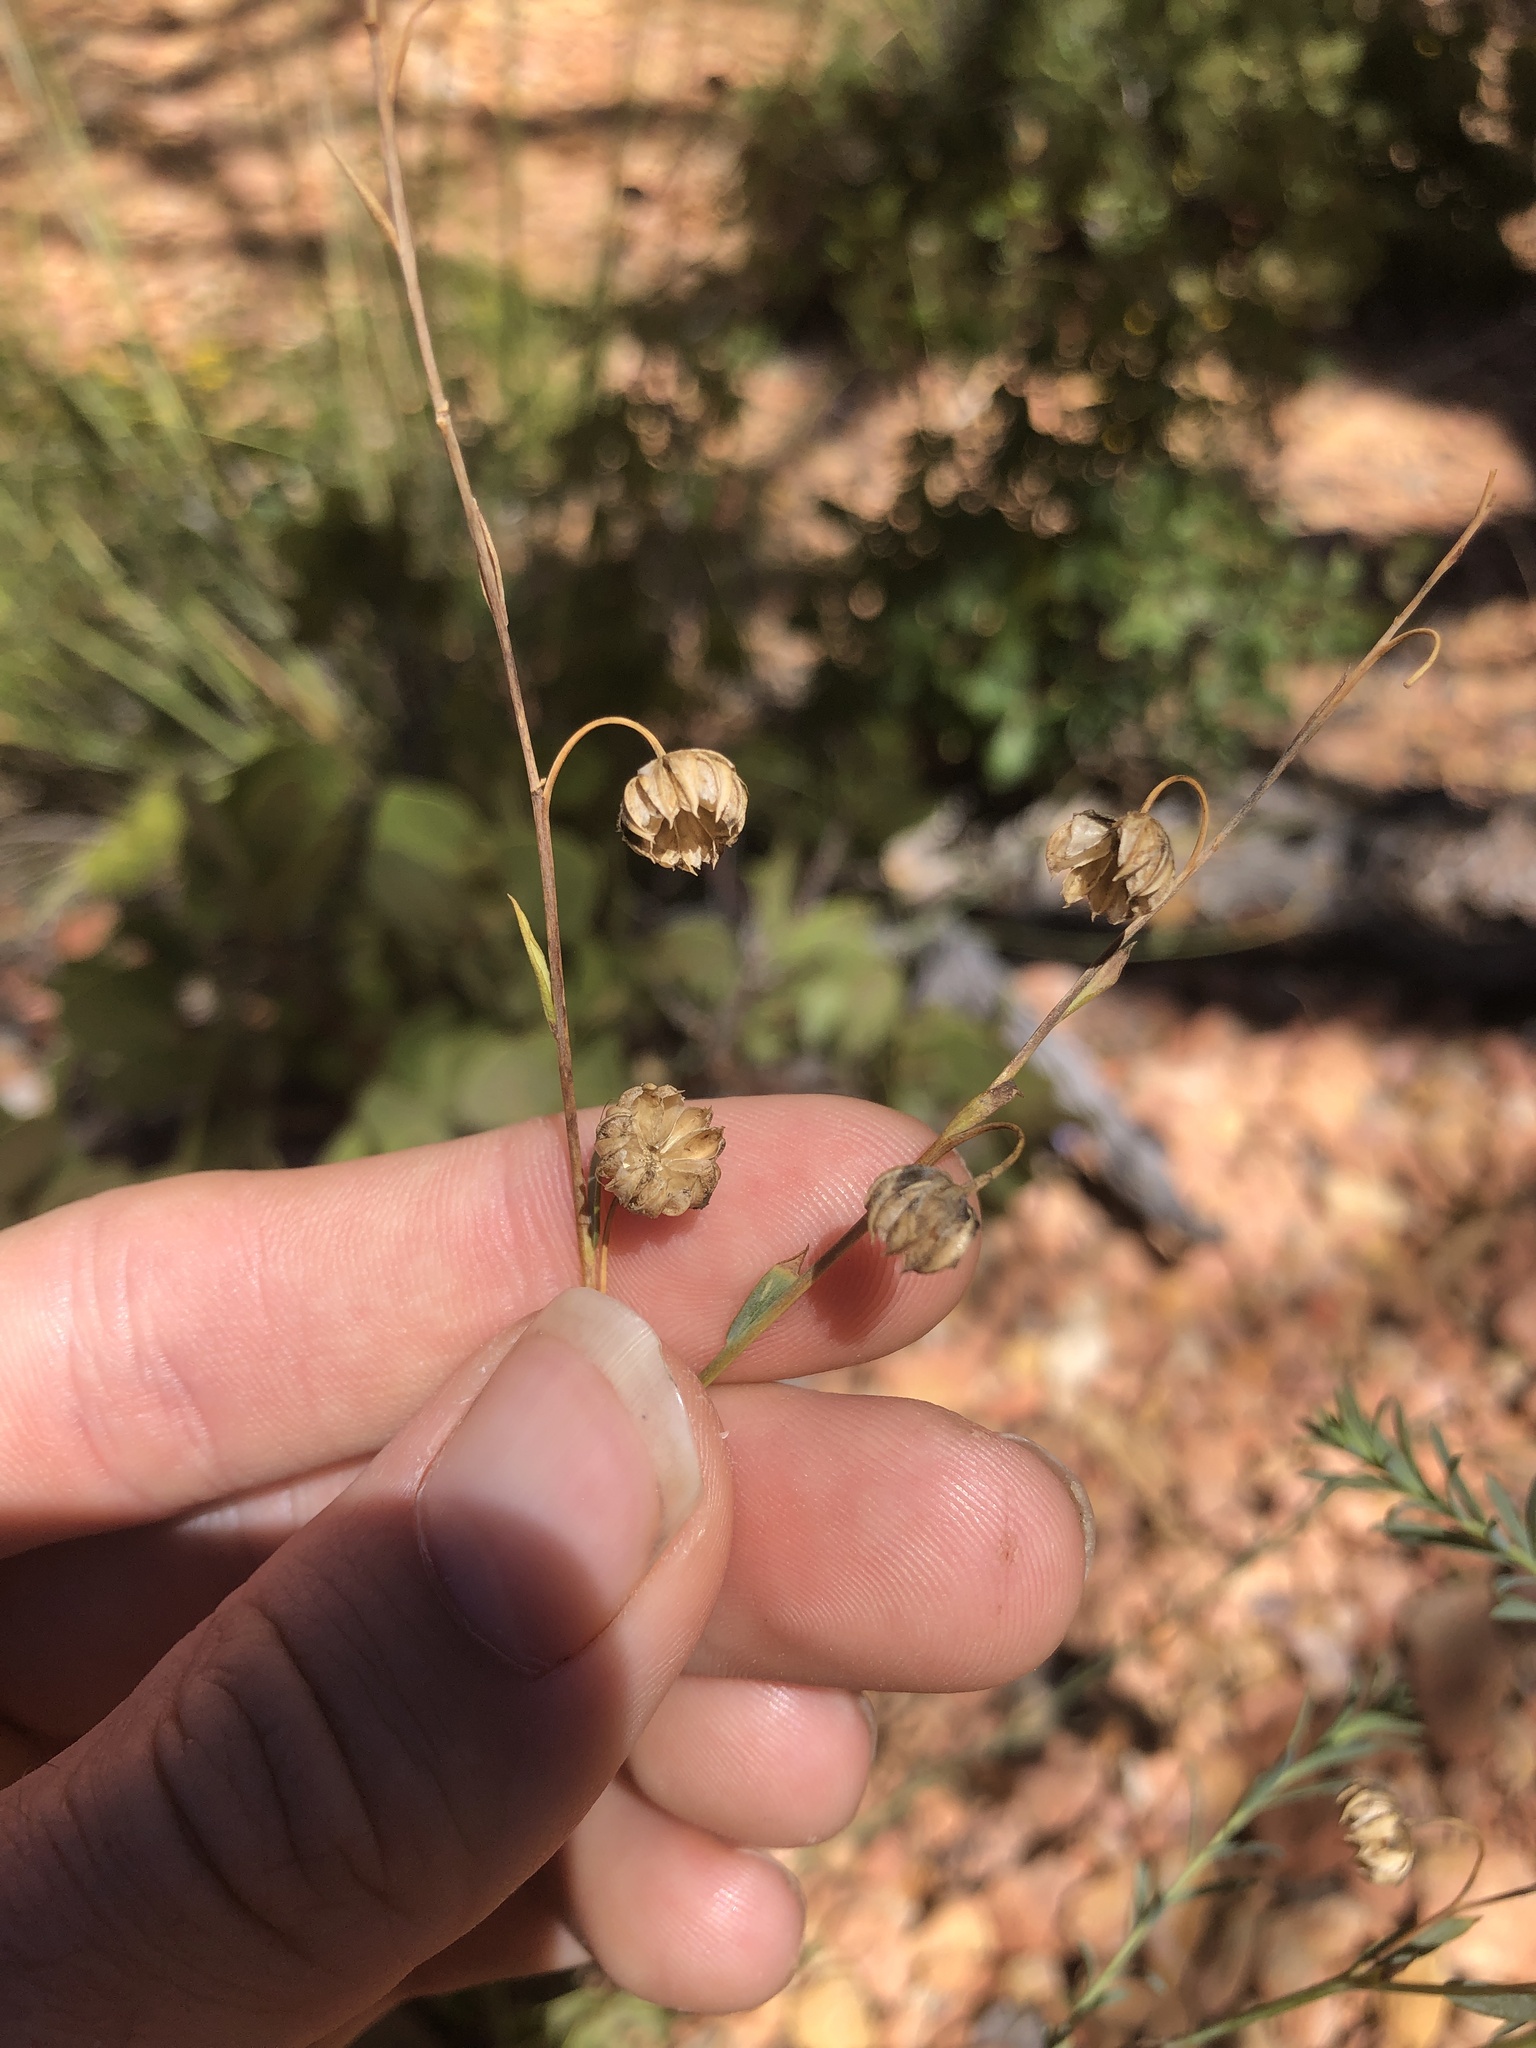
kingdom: Plantae
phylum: Tracheophyta
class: Magnoliopsida
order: Malpighiales
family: Linaceae
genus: Linum
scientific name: Linum lewisii
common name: Prairie flax
